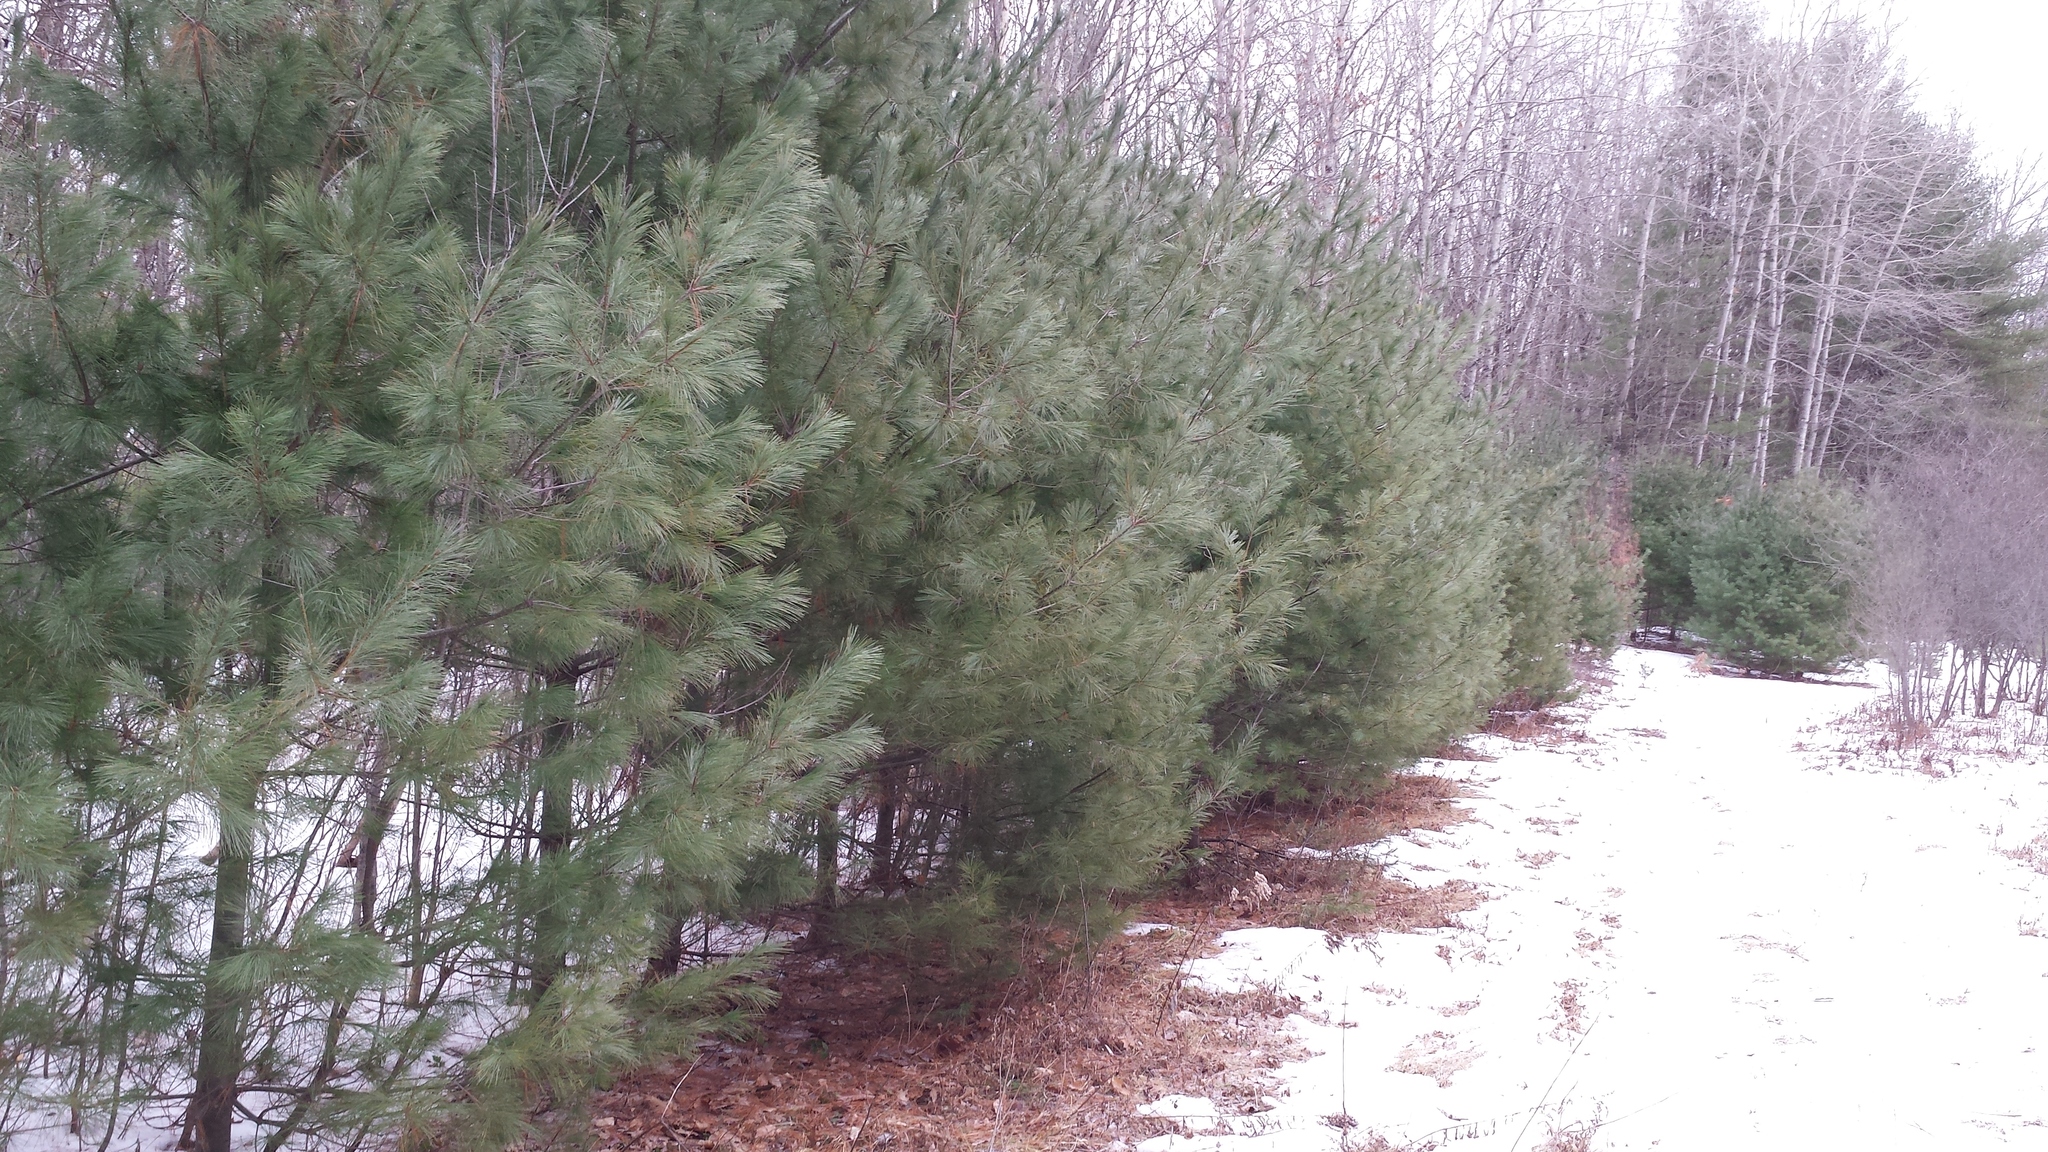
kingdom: Plantae
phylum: Tracheophyta
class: Pinopsida
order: Pinales
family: Pinaceae
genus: Pinus
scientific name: Pinus strobus
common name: Weymouth pine
